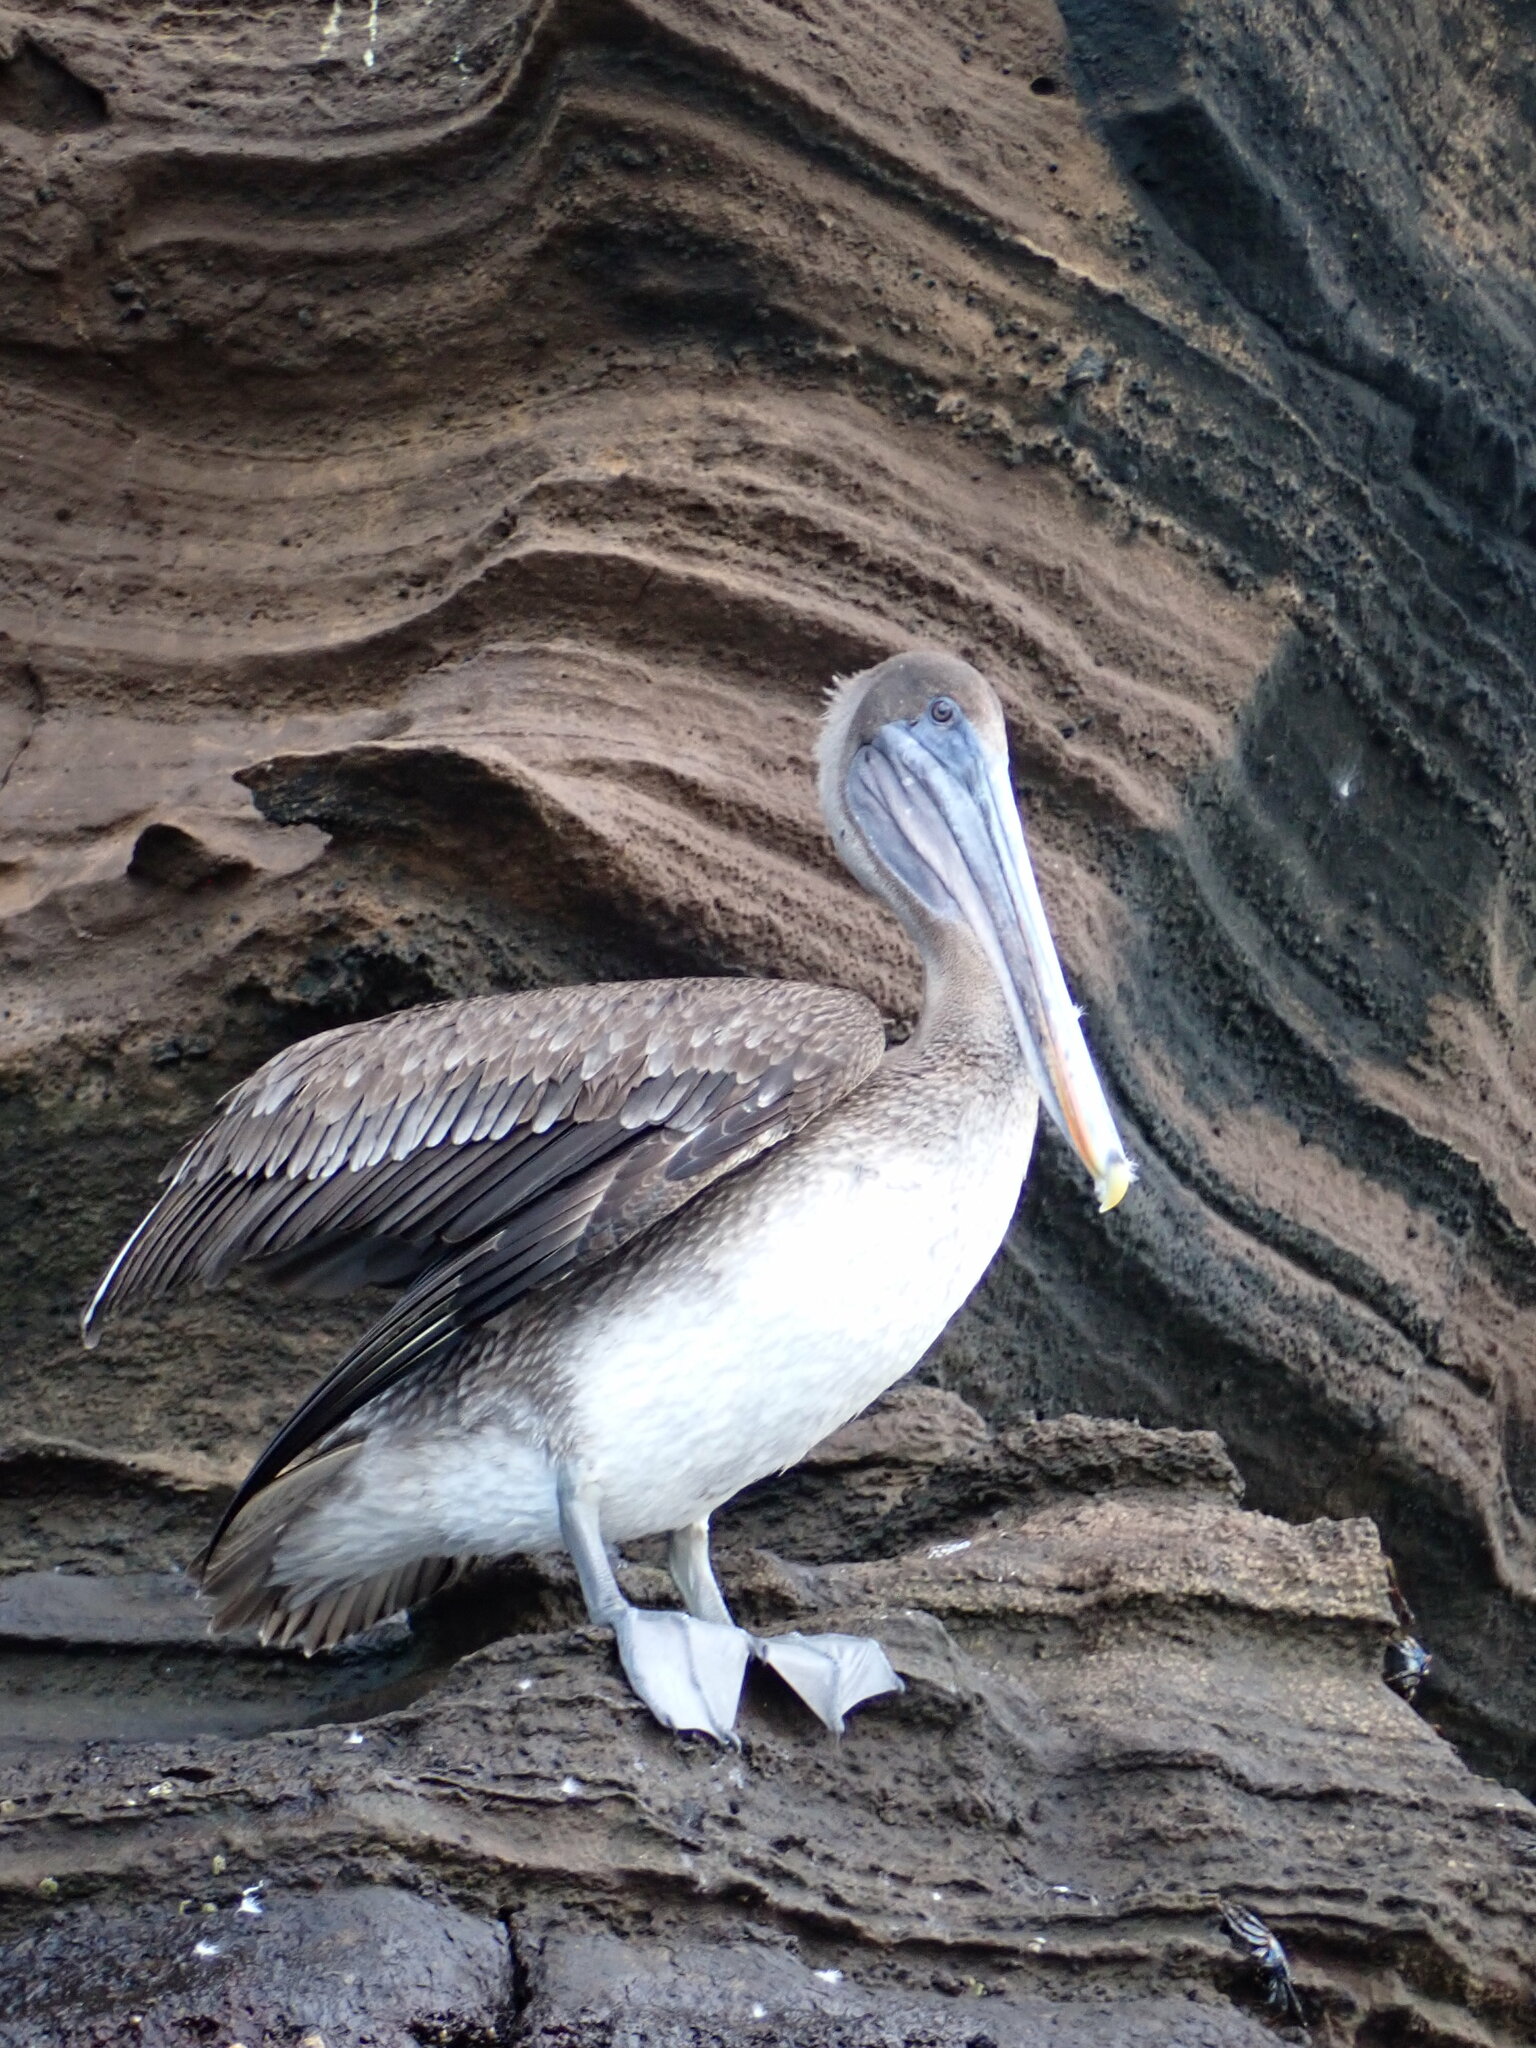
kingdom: Animalia
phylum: Chordata
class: Aves
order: Pelecaniformes
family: Pelecanidae
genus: Pelecanus
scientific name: Pelecanus occidentalis
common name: Brown pelican
